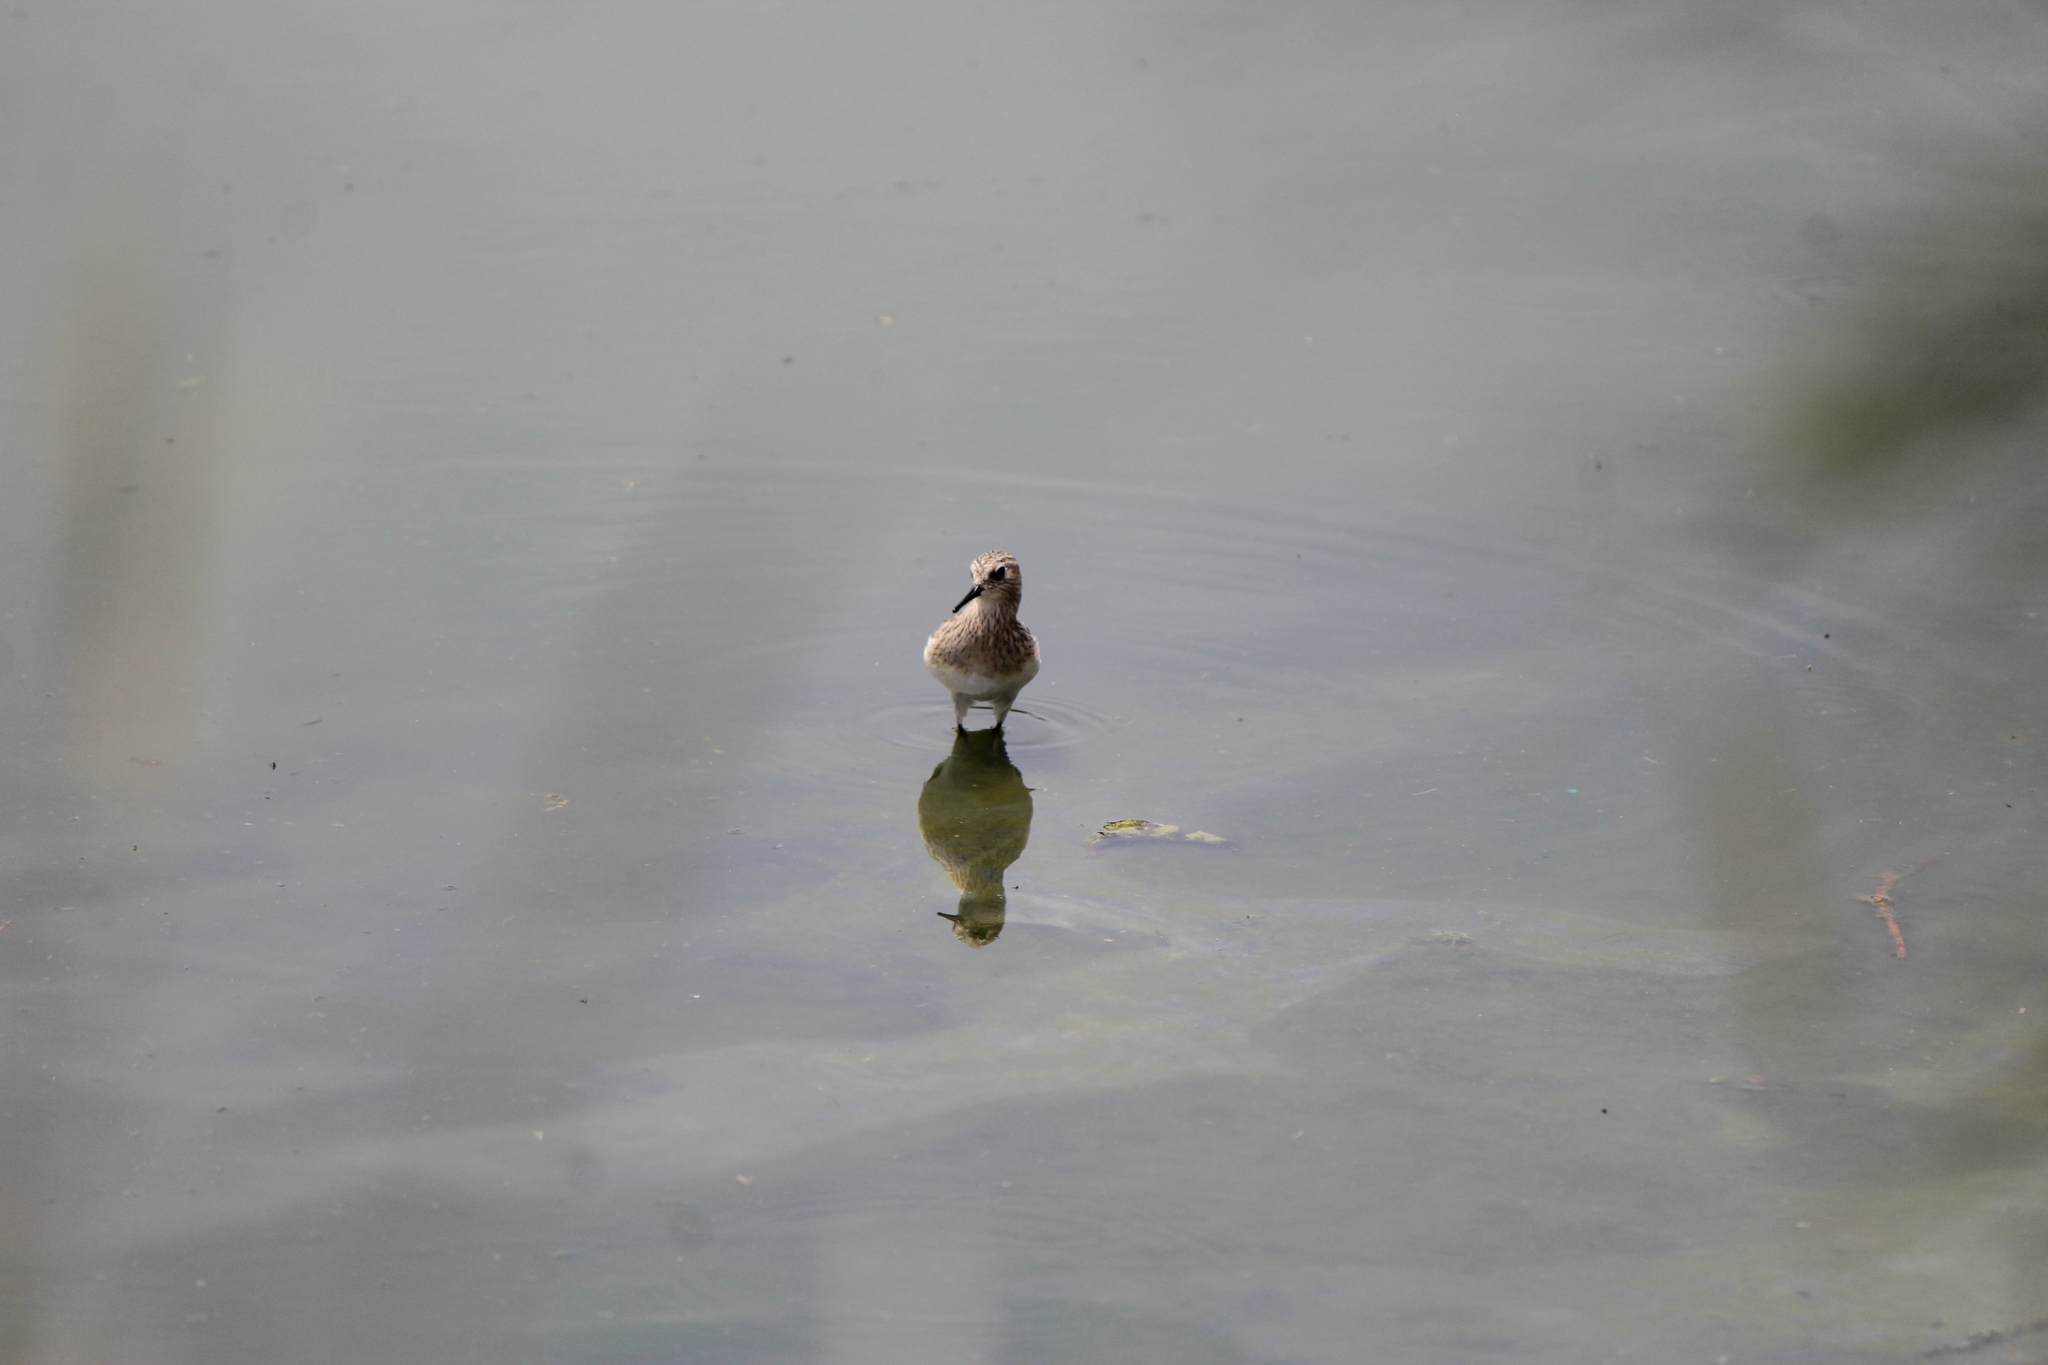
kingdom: Animalia
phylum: Chordata
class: Aves
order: Charadriiformes
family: Scolopacidae
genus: Calidris
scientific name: Calidris bairdii
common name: Baird's sandpiper
